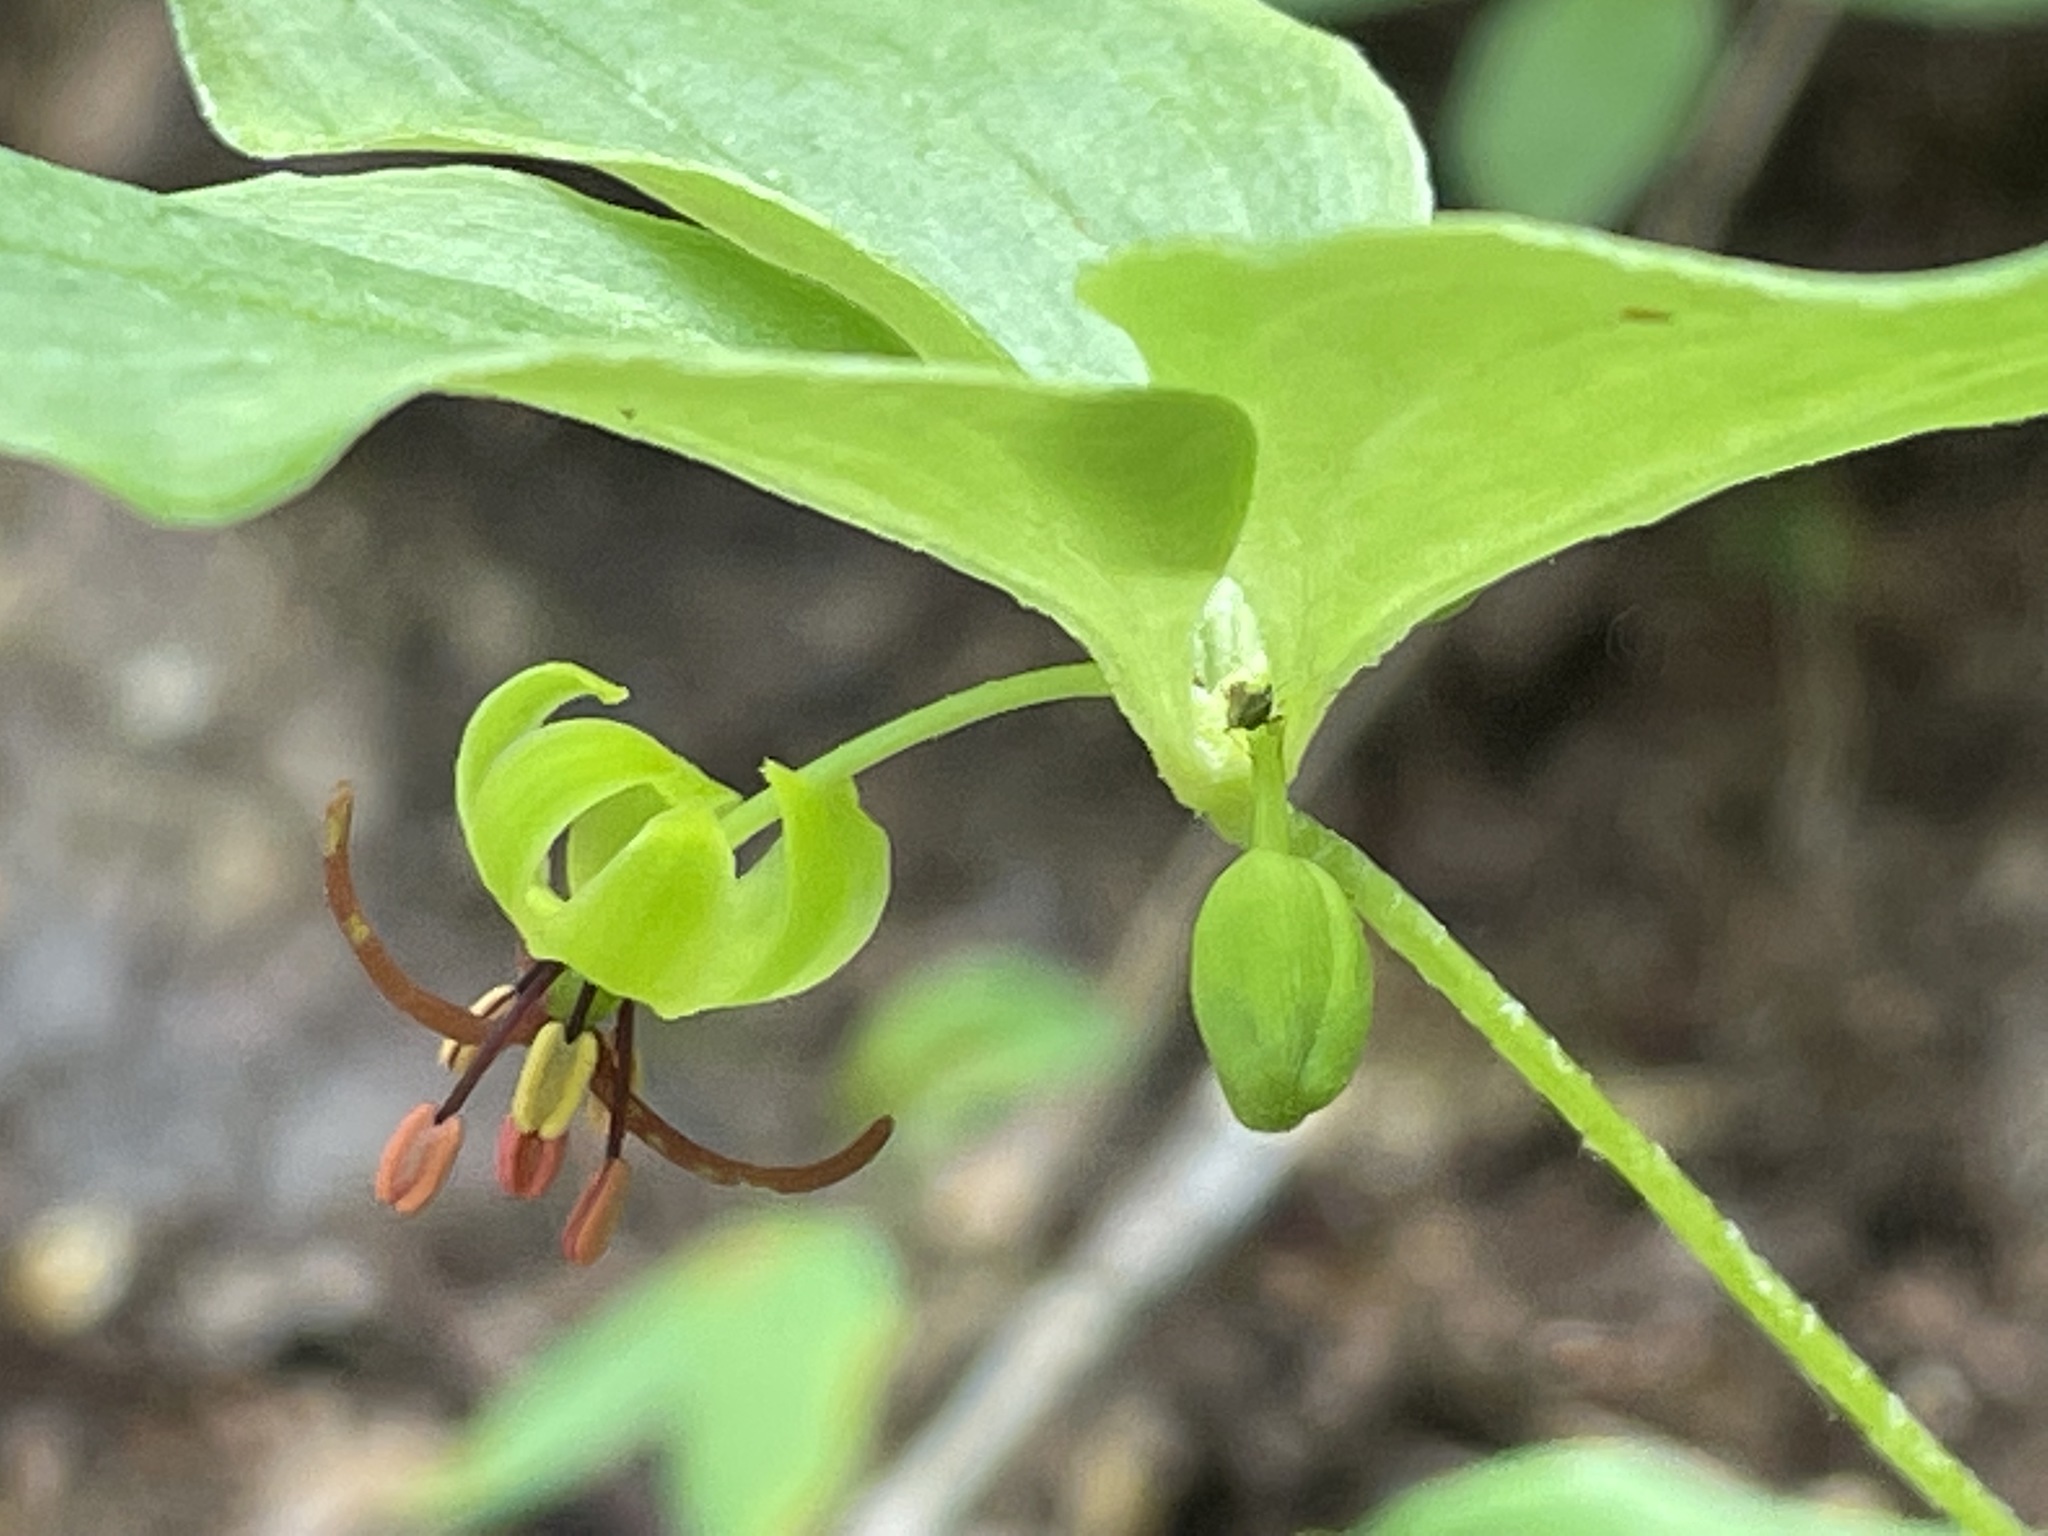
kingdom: Plantae
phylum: Tracheophyta
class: Liliopsida
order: Liliales
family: Liliaceae
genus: Medeola
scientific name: Medeola virginiana
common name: Indian cucumber-root
